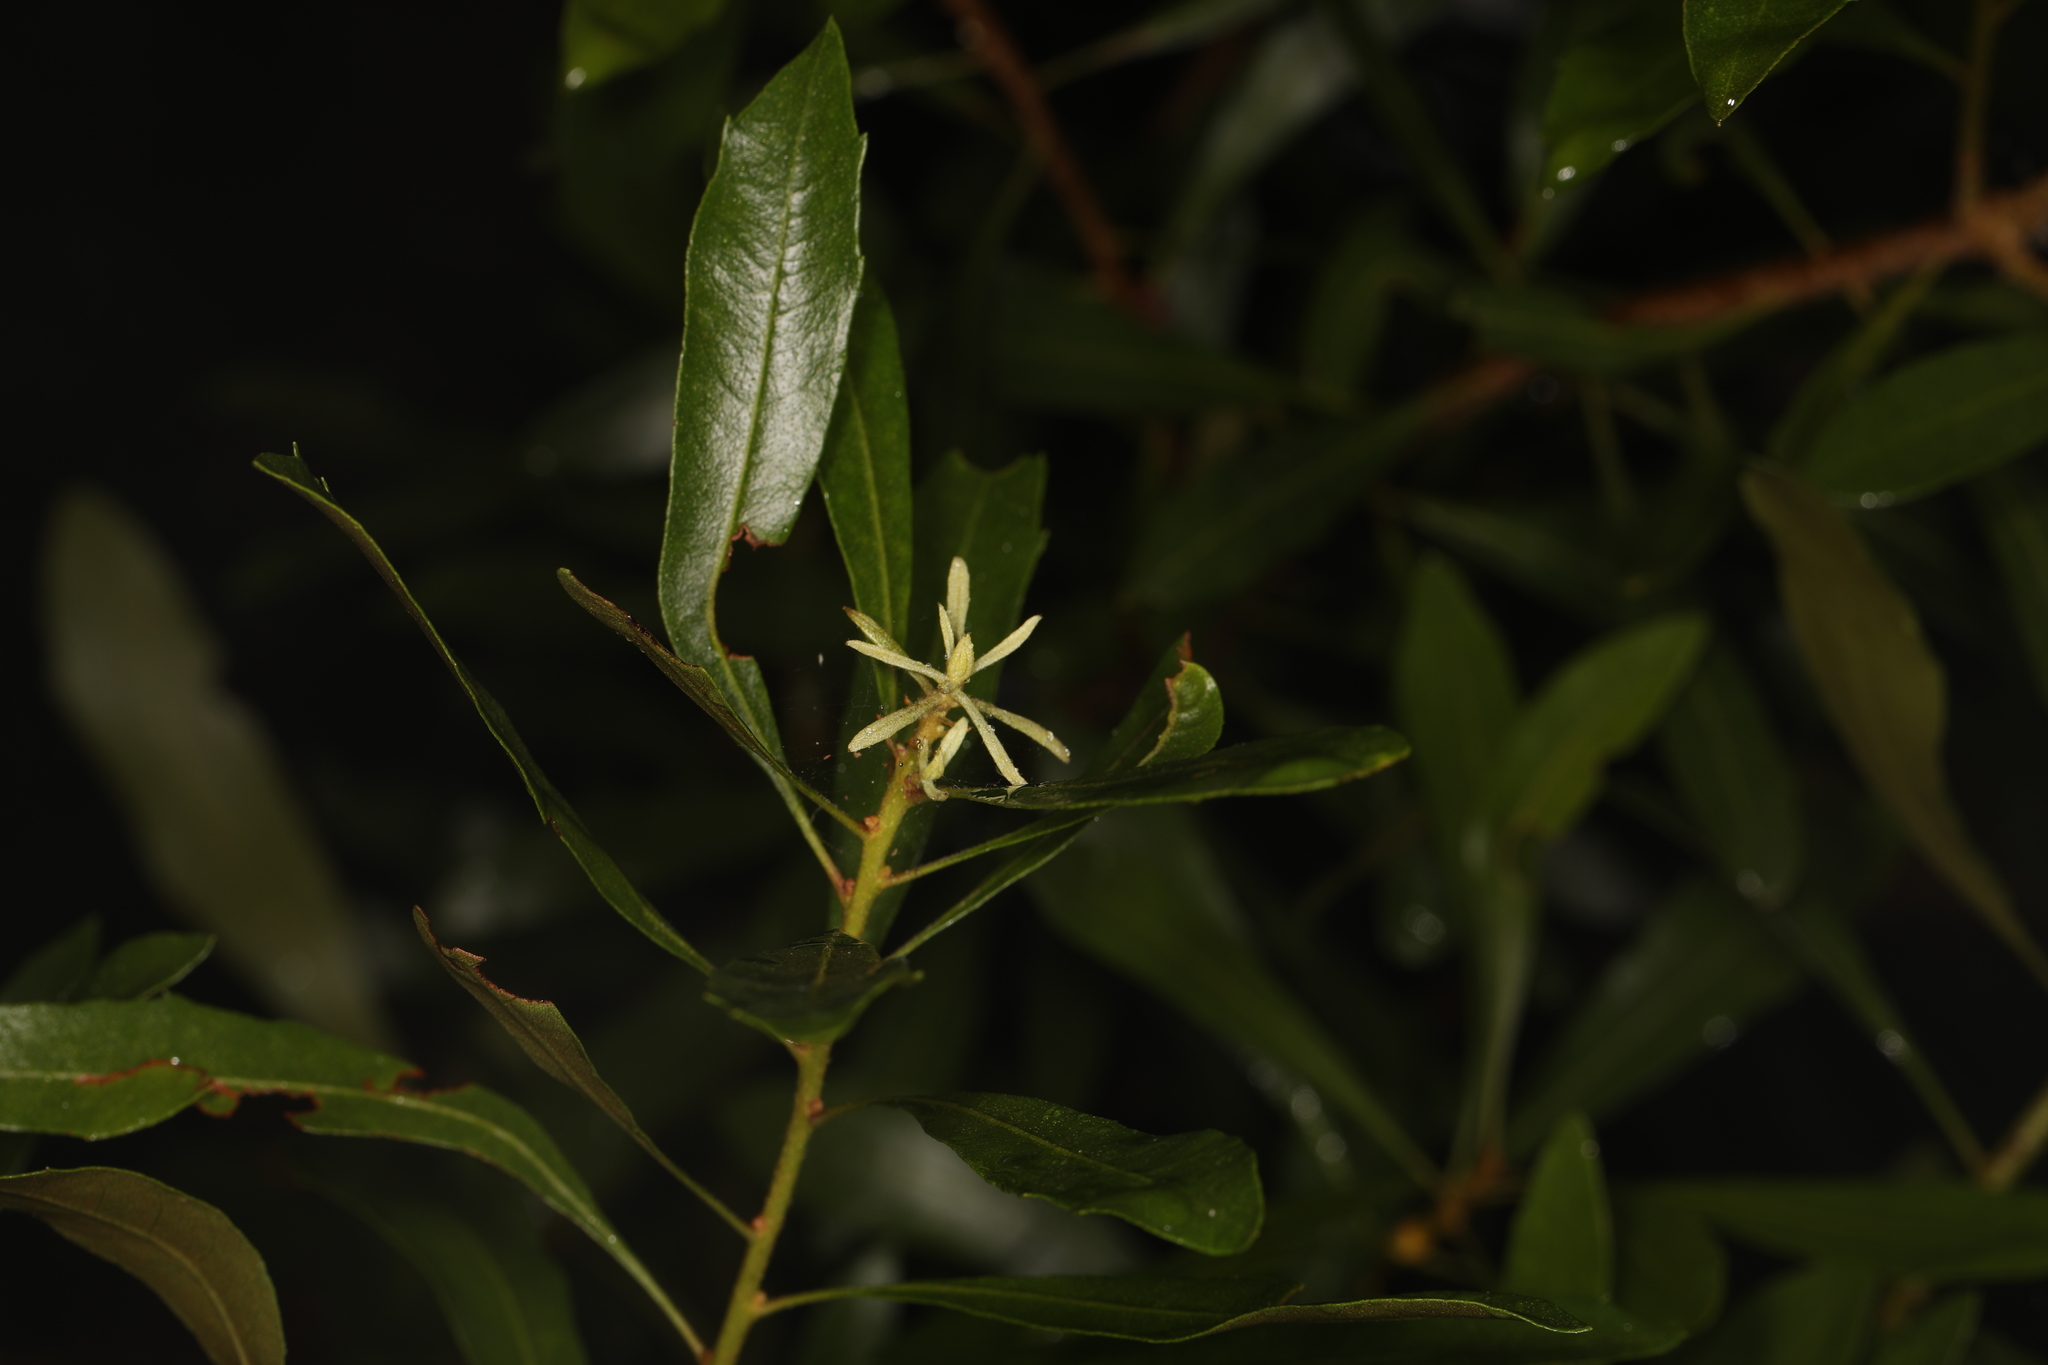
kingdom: Plantae
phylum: Tracheophyta
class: Magnoliopsida
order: Fagales
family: Myricaceae
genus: Morella
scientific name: Morella cerifera
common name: Wax myrtle
